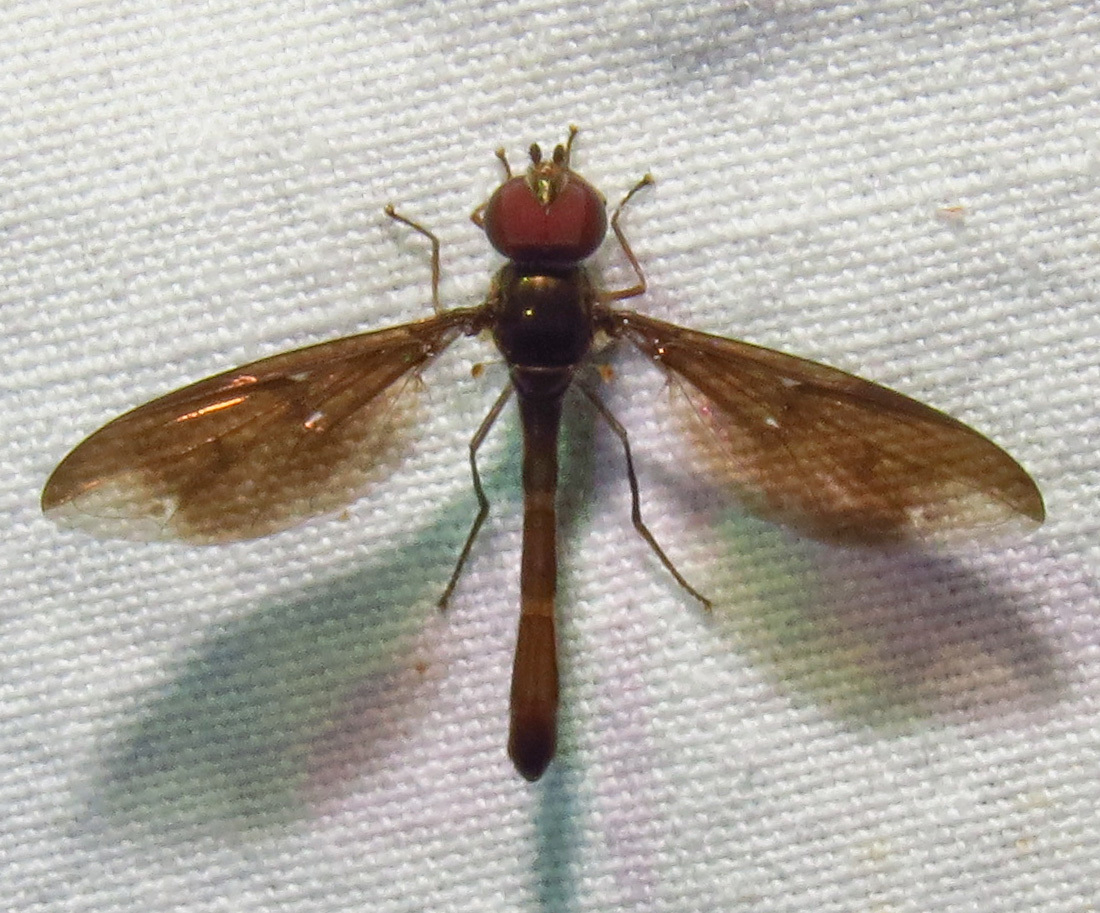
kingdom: Animalia
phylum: Arthropoda
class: Insecta
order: Diptera
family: Syrphidae
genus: Ocyptamus
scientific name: Ocyptamus fuscipennis
